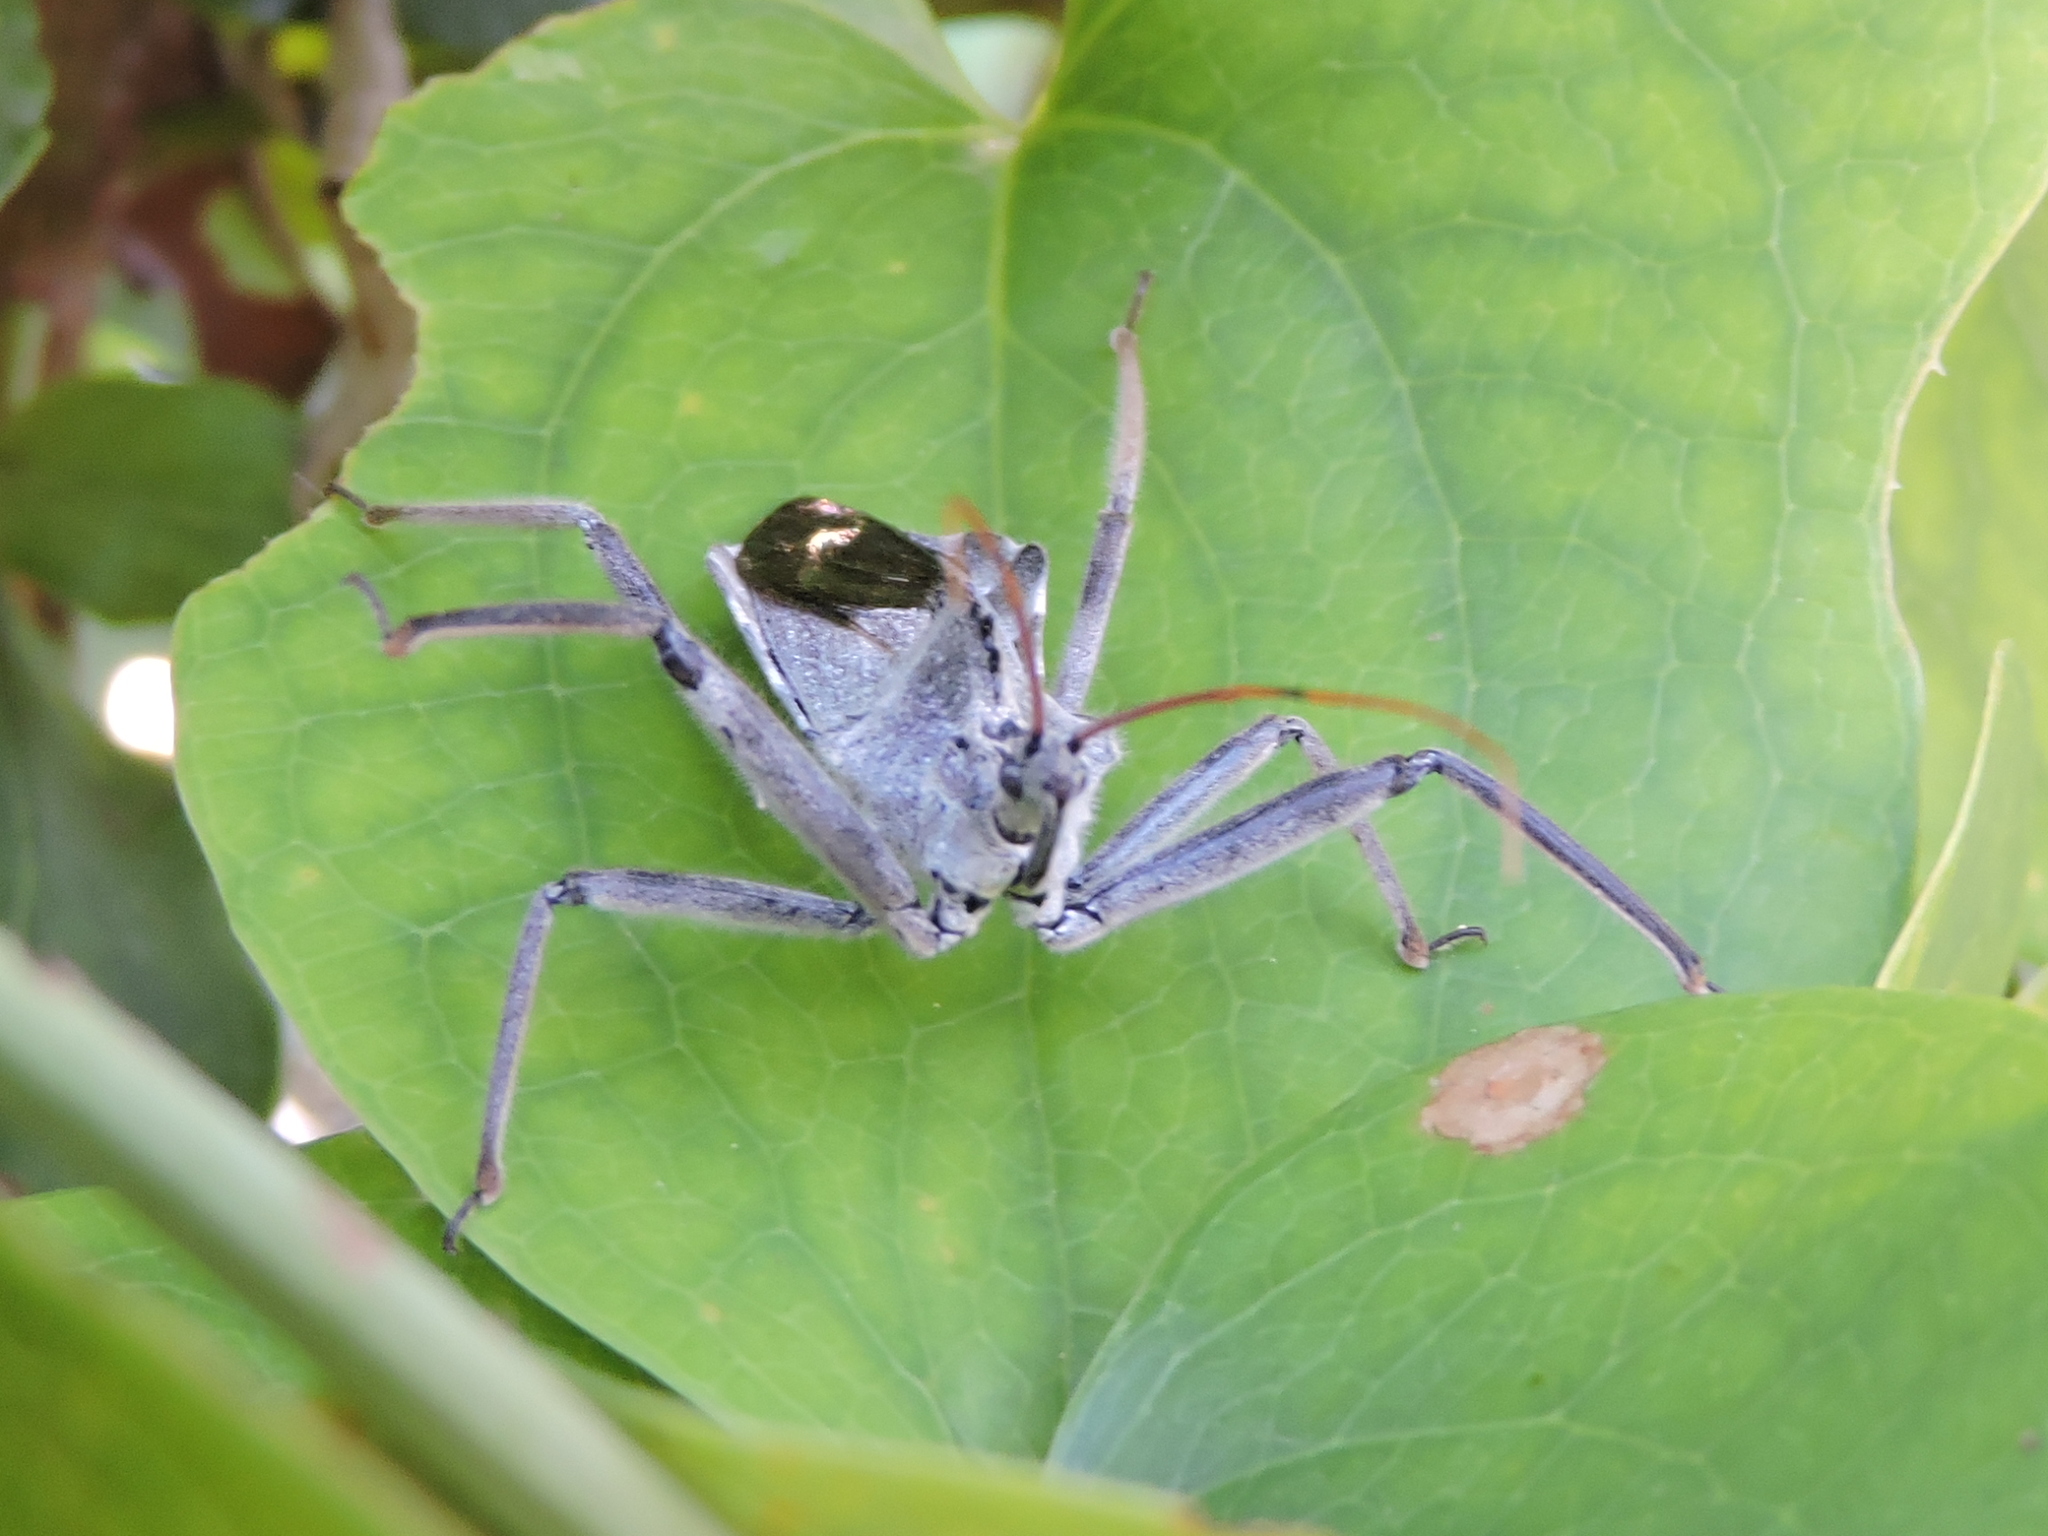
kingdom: Animalia
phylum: Arthropoda
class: Insecta
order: Hemiptera
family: Reduviidae
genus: Arilus
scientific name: Arilus cristatus
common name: North american wheel bug
